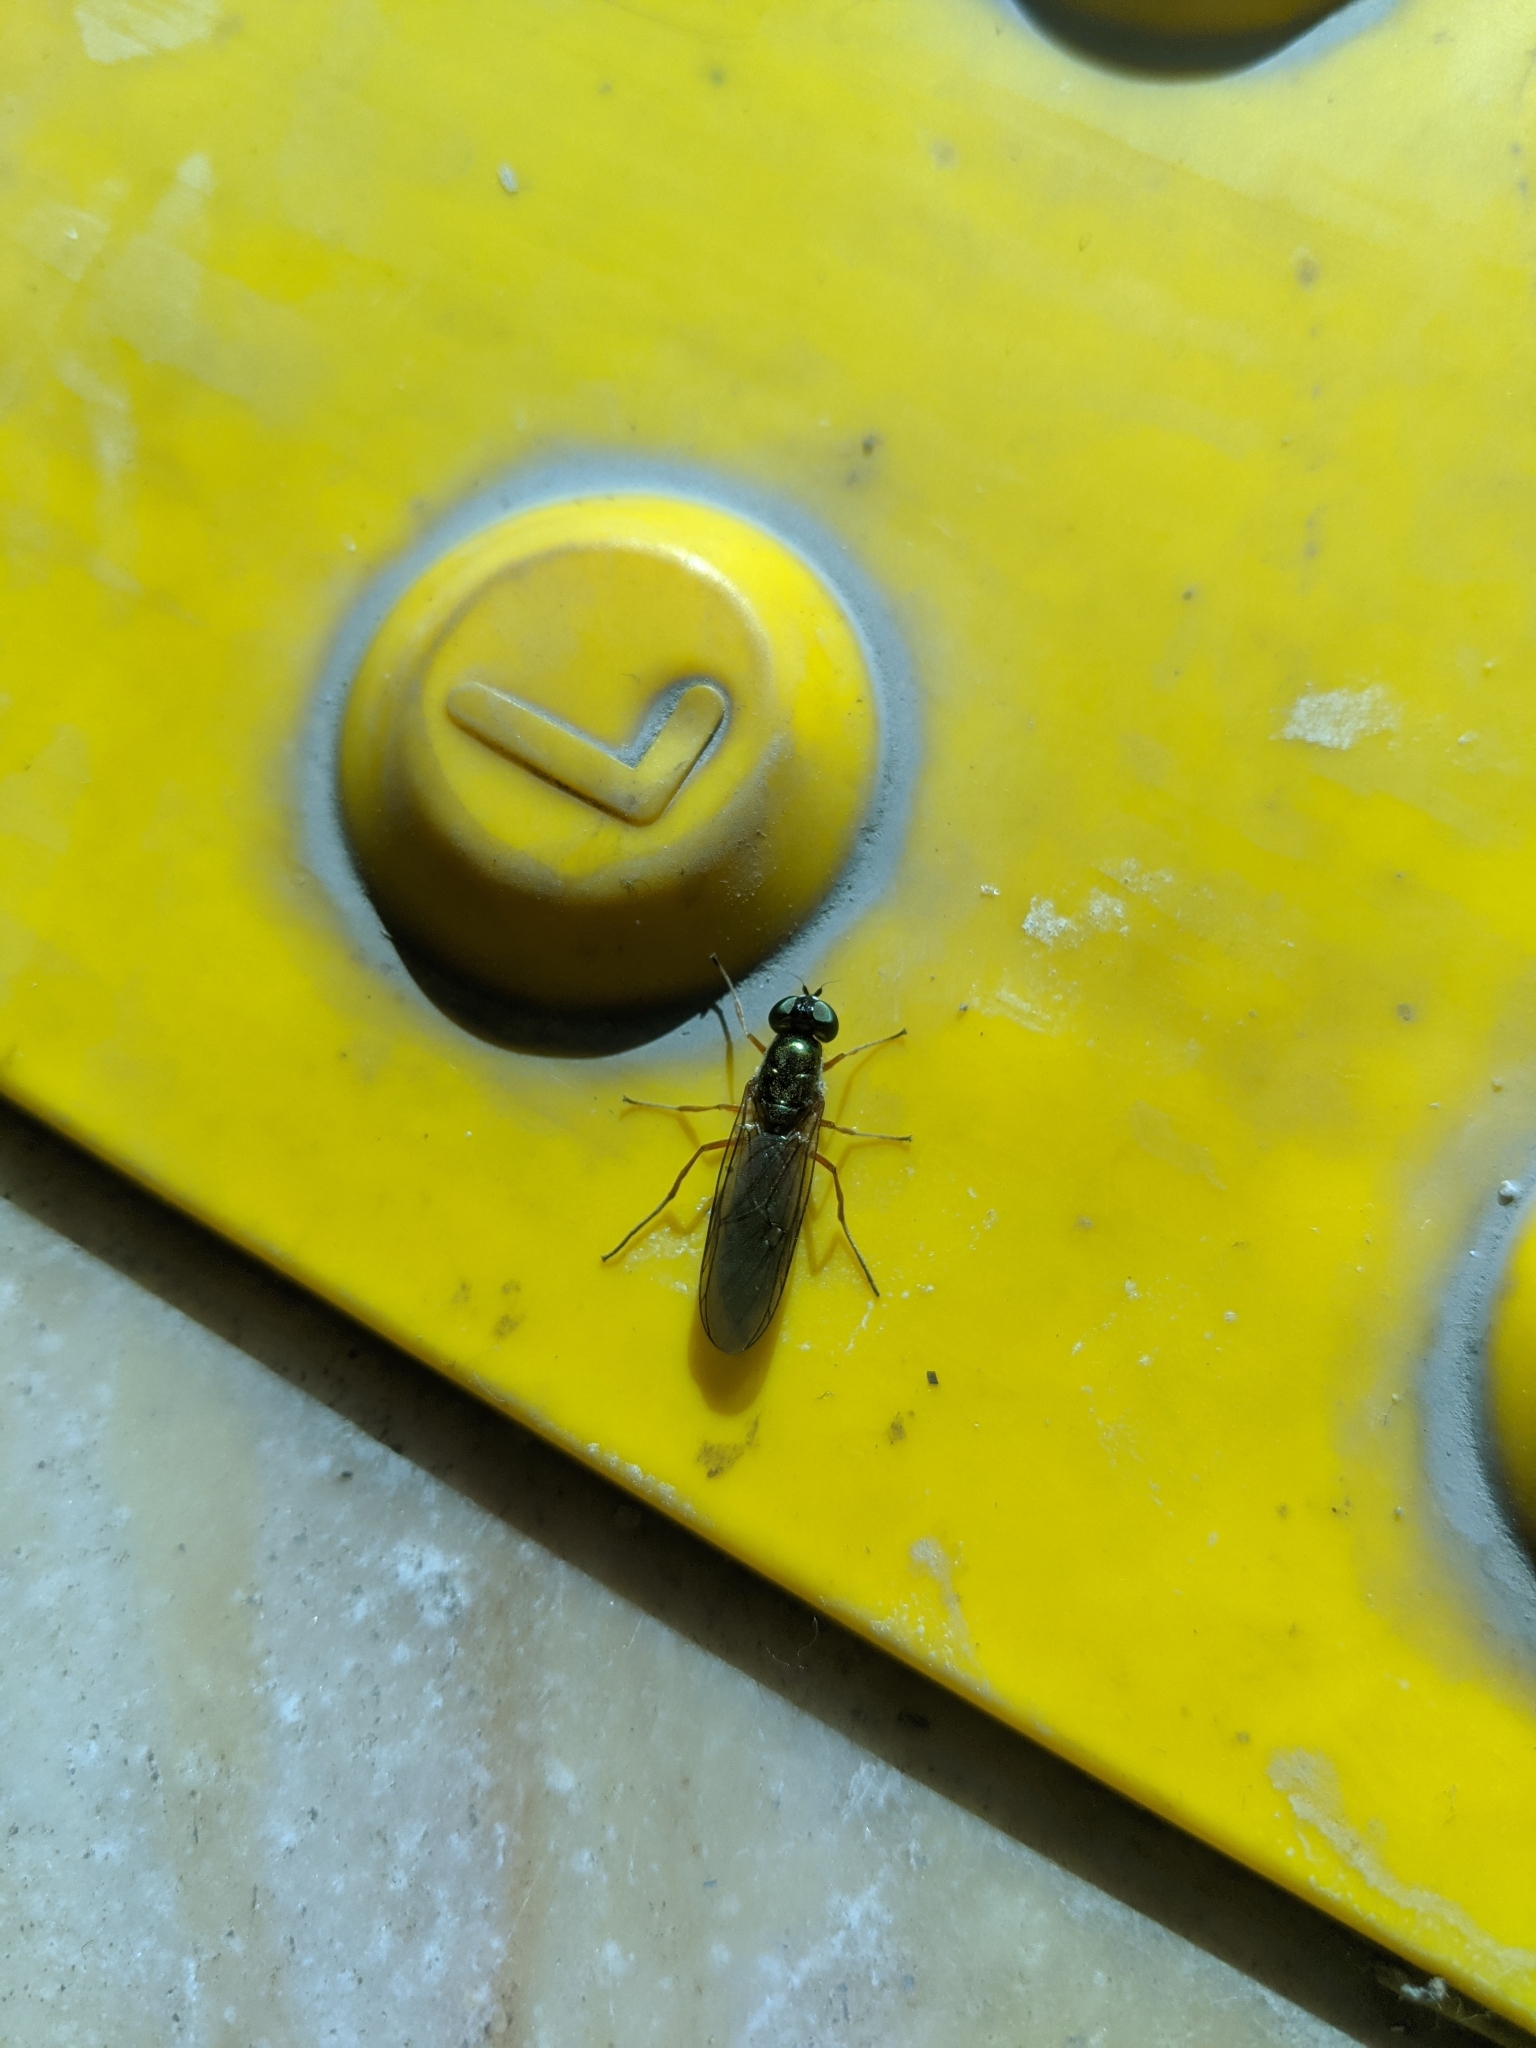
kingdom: Animalia
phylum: Arthropoda
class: Insecta
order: Diptera
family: Stratiomyidae
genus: Sargus
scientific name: Sargus bipunctatus
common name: Twin-spot centurion
